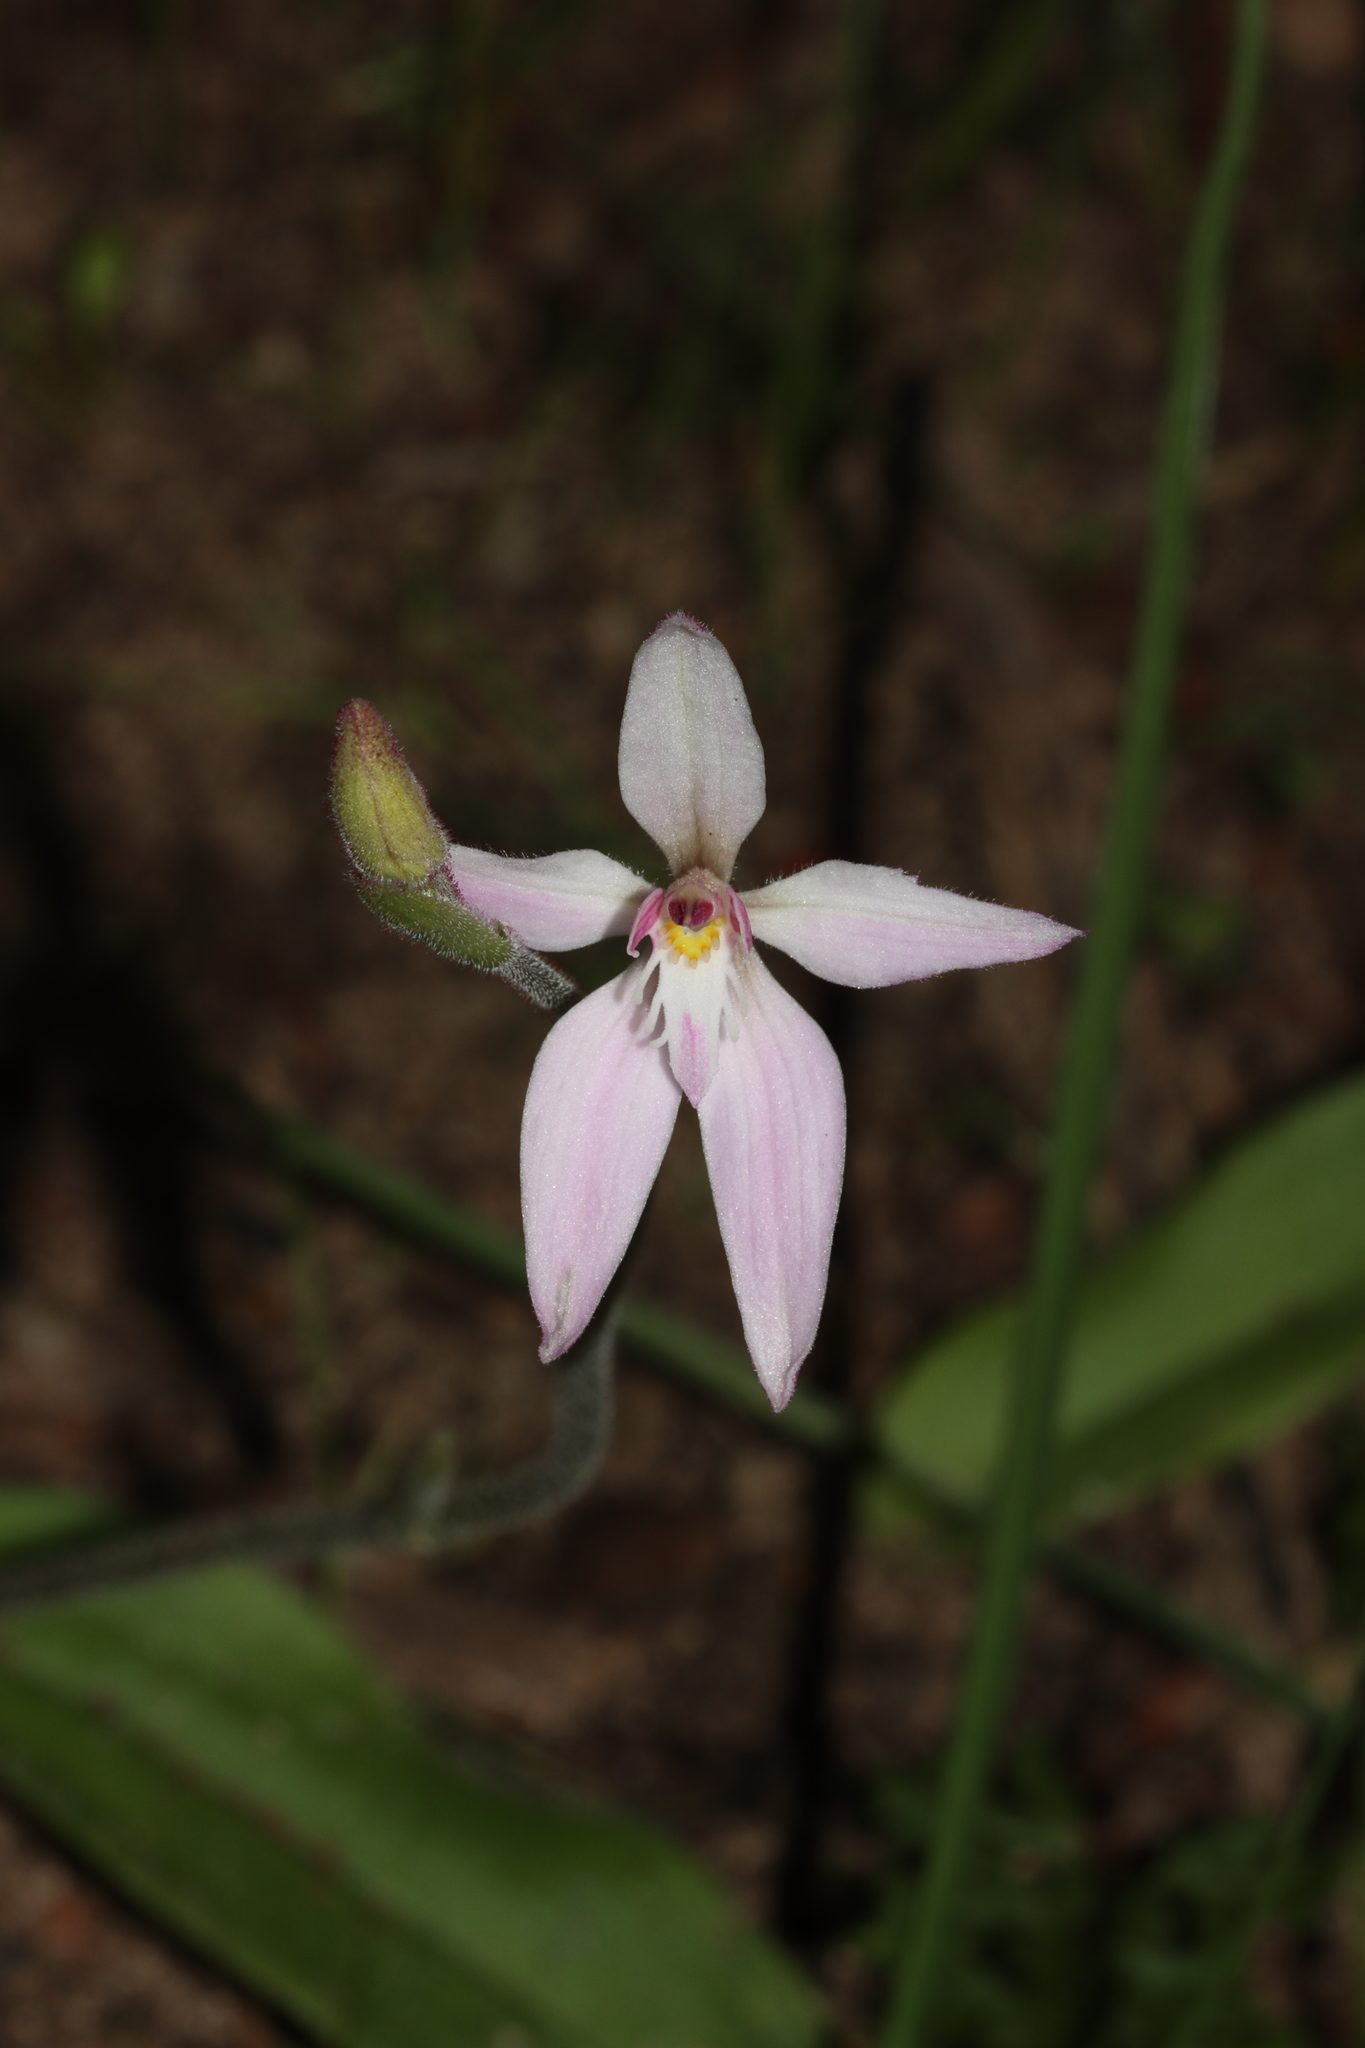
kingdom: Plantae
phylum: Tracheophyta
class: Liliopsida
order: Asparagales
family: Orchidaceae
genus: Caladenia
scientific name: Caladenia latifolia
